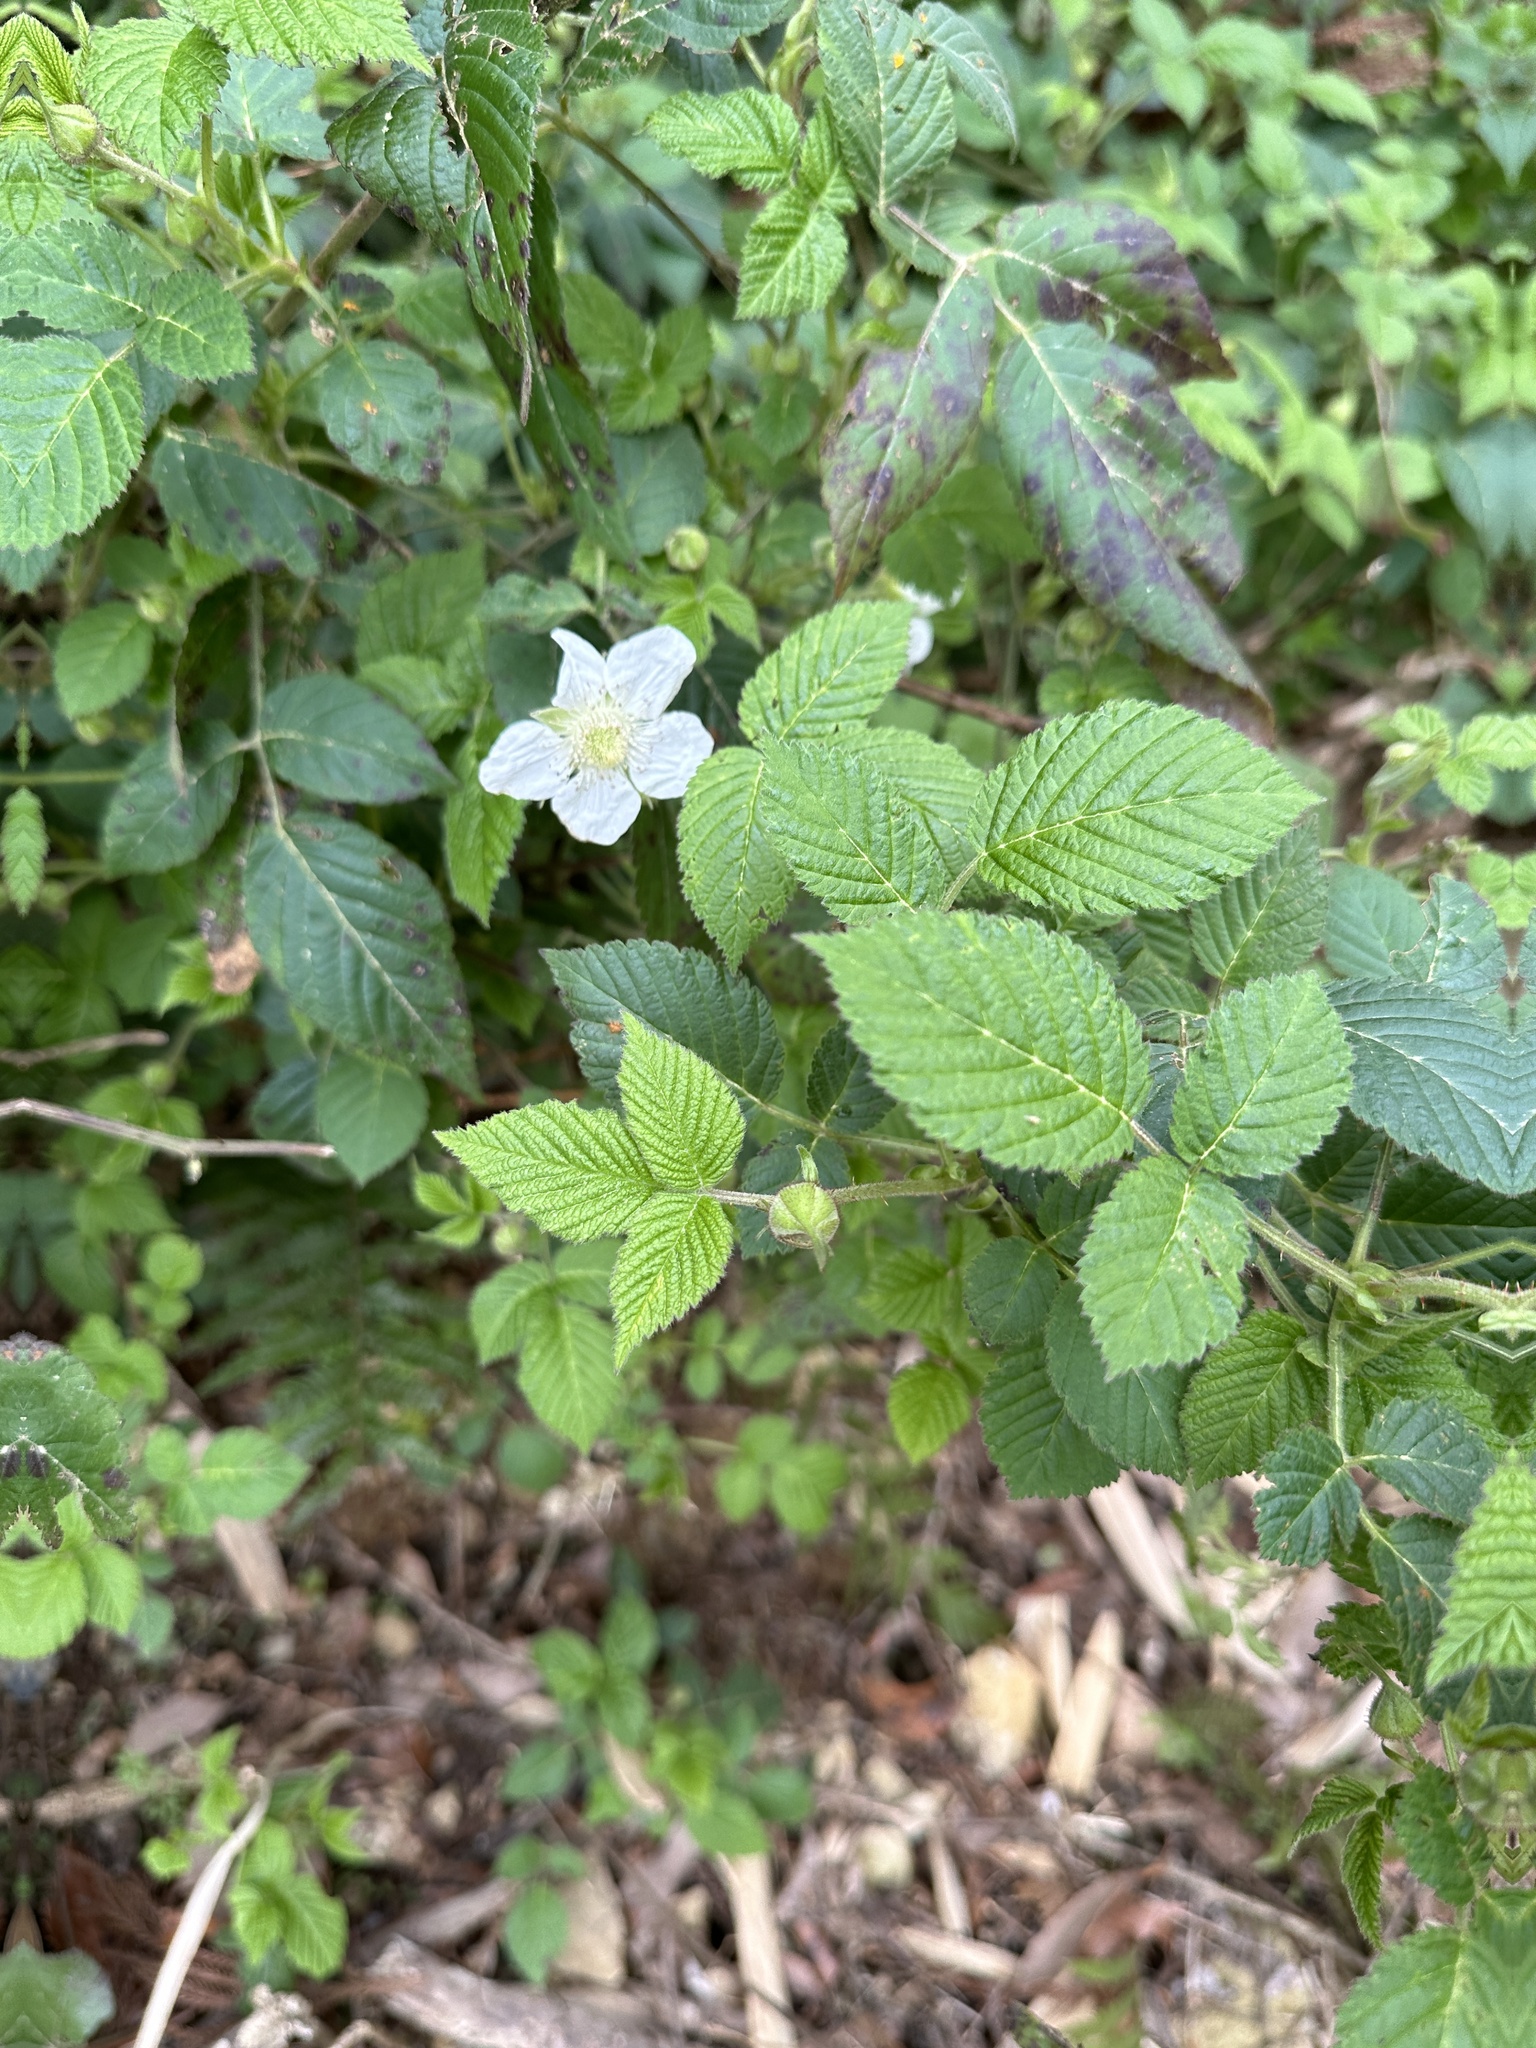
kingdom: Plantae
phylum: Tracheophyta
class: Magnoliopsida
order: Rosales
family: Rosaceae
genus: Rubus
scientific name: Rubus hirsutus
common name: Hirsute raspberry
